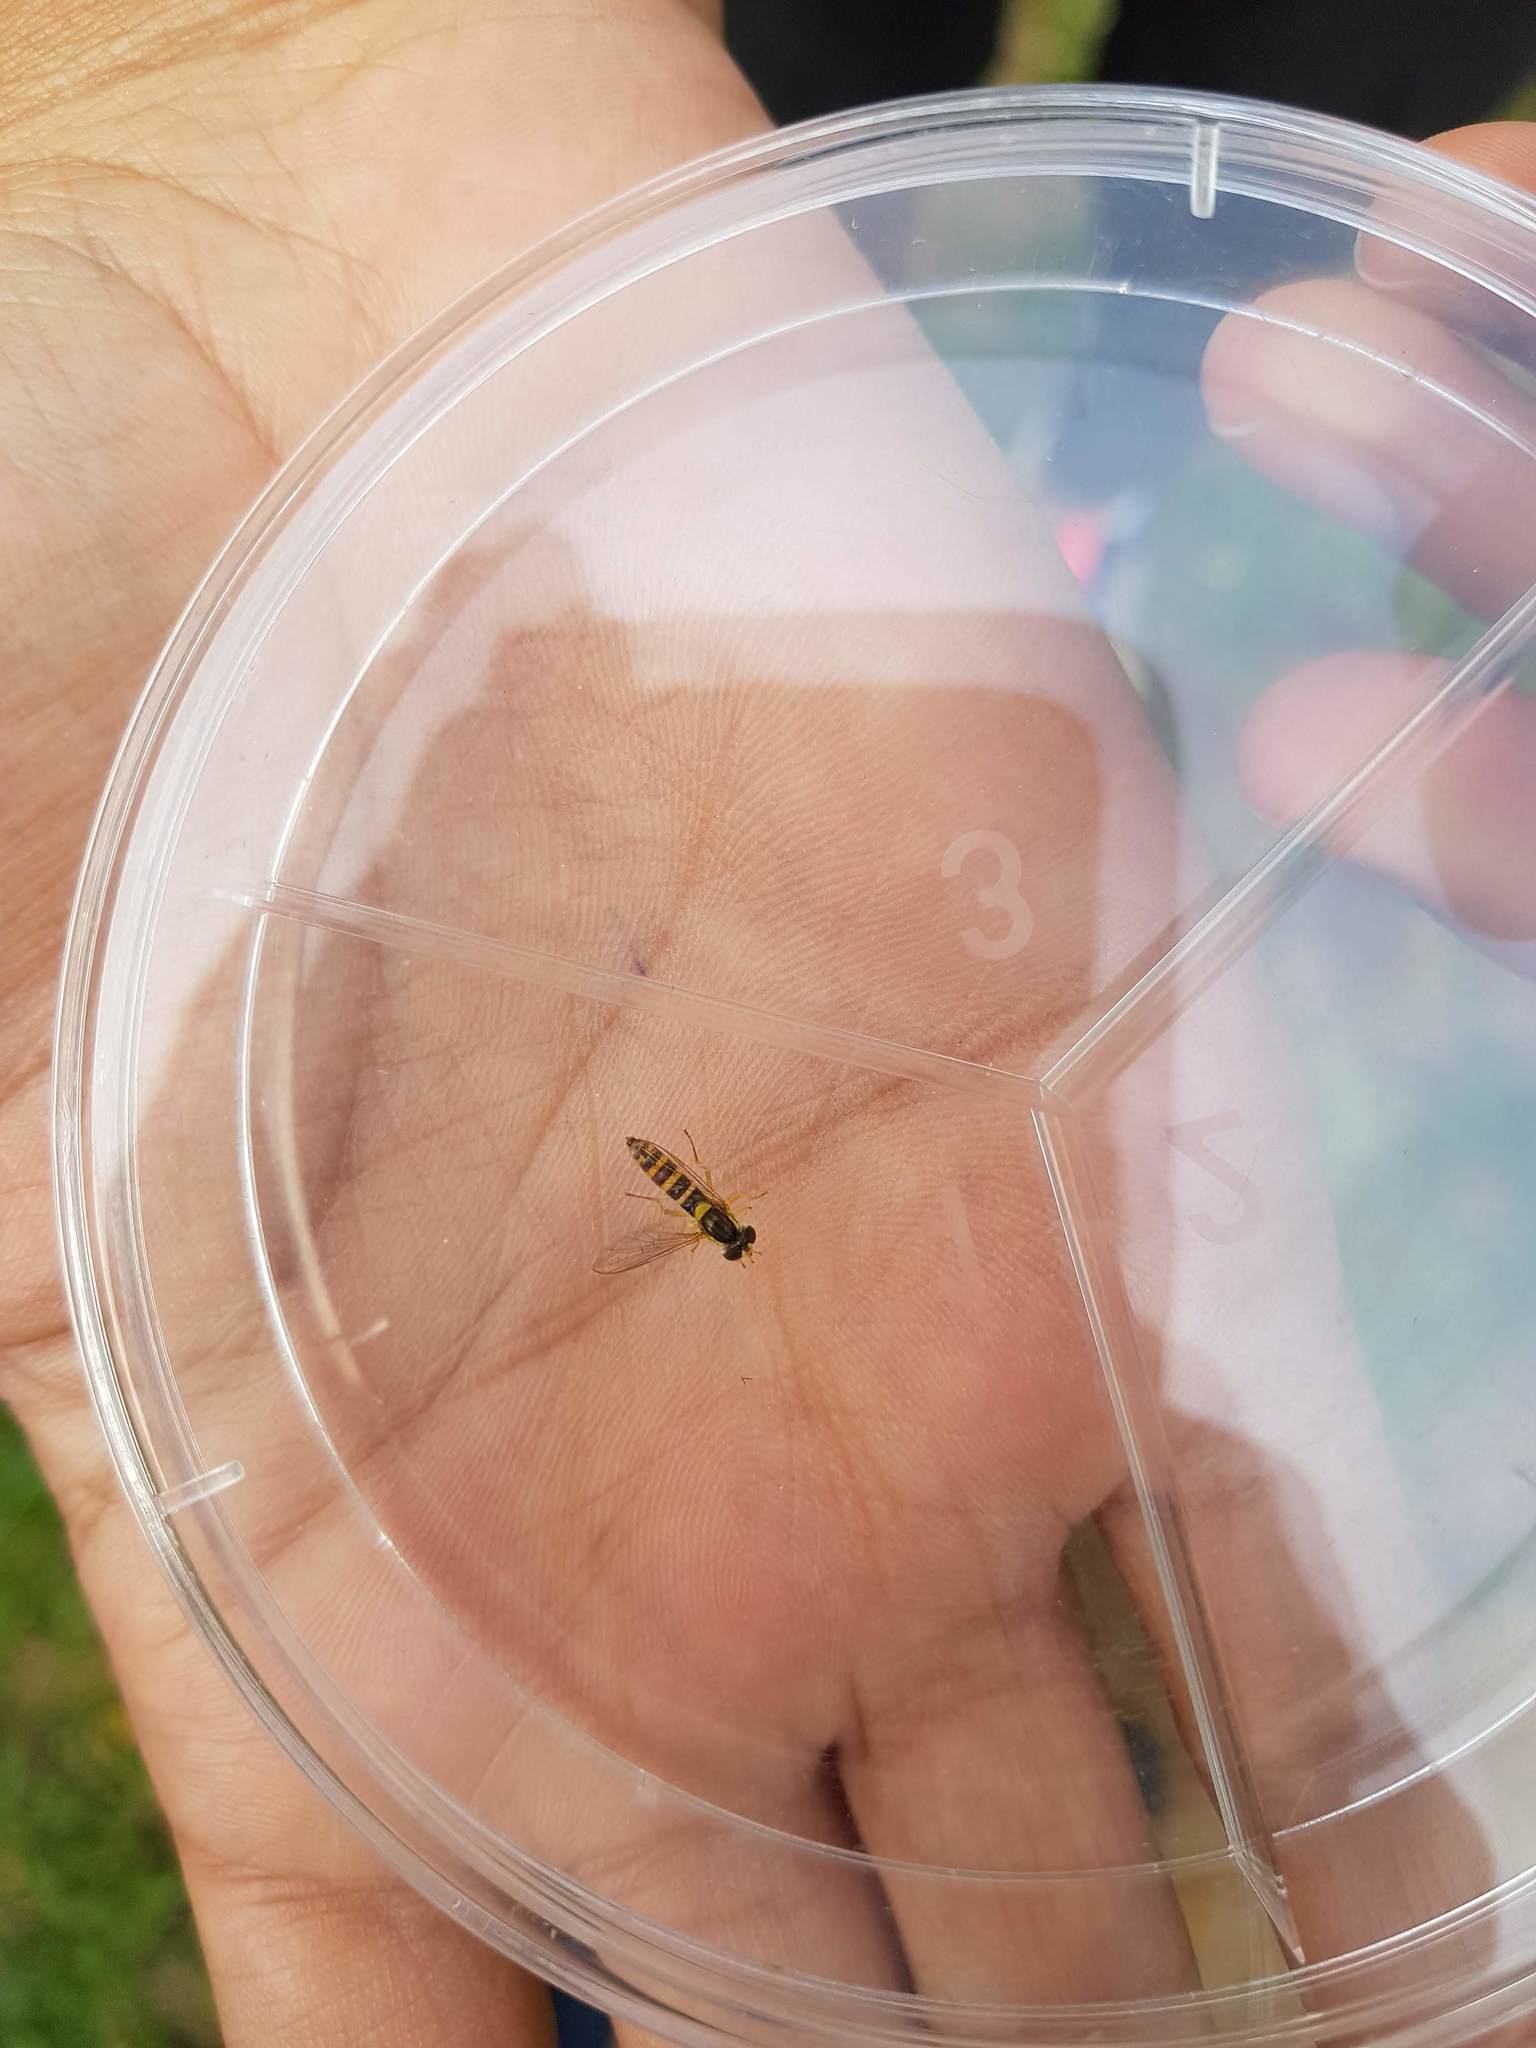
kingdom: Animalia
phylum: Arthropoda
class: Insecta
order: Diptera
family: Syrphidae
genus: Sphaerophoria
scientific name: Sphaerophoria scripta
